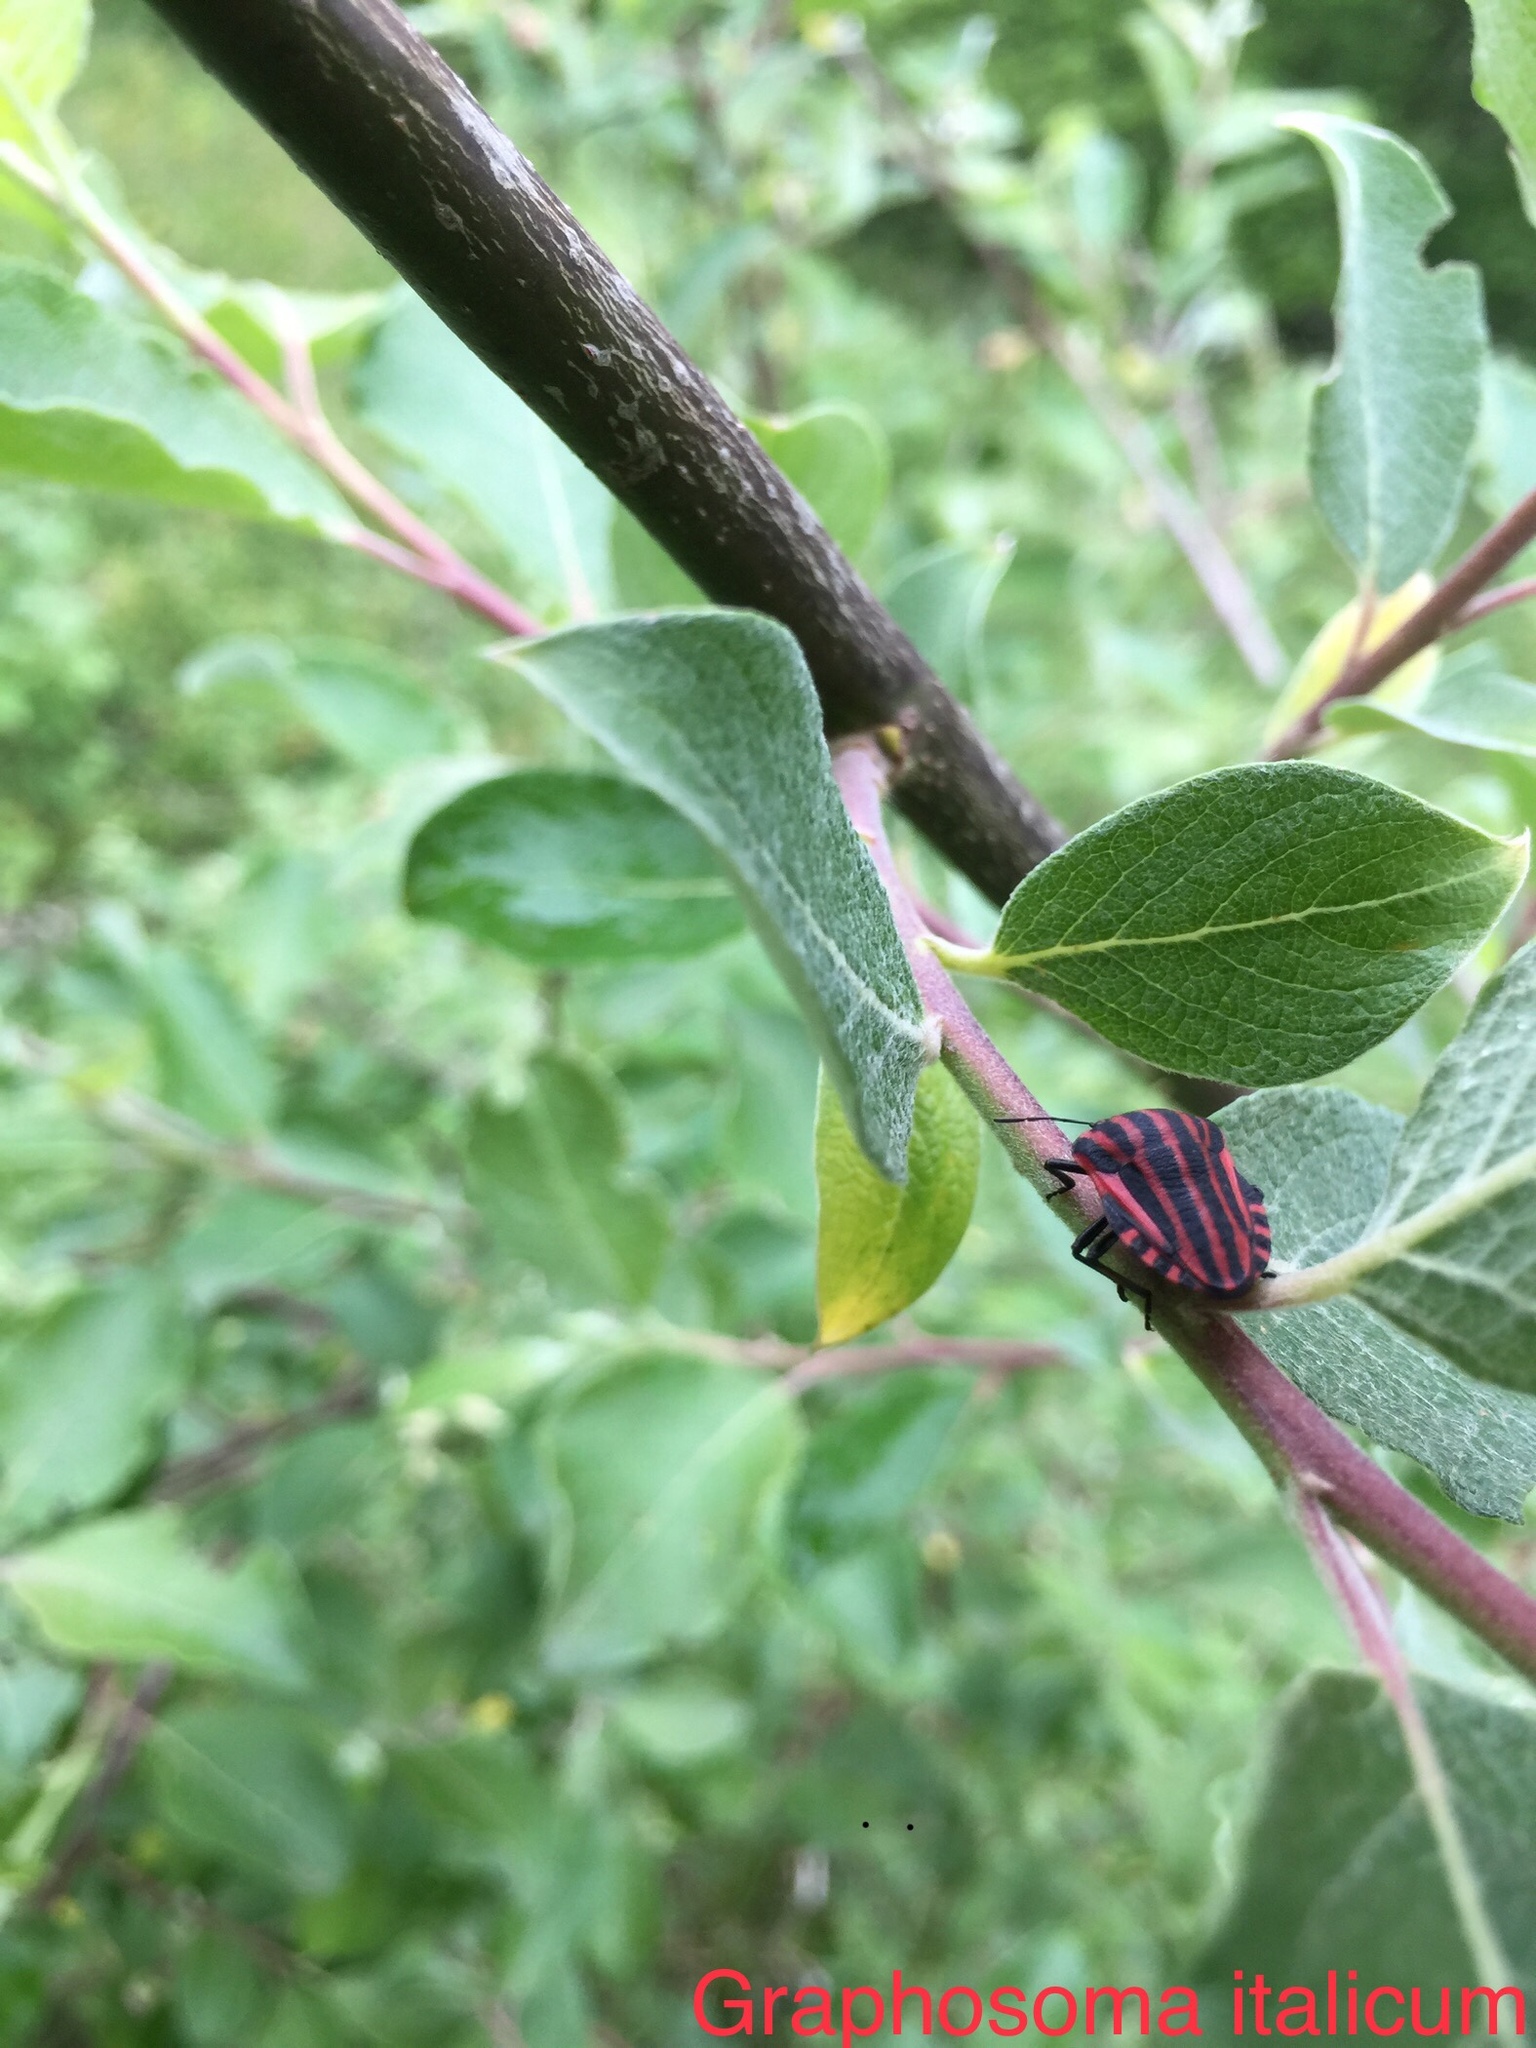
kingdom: Animalia
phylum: Arthropoda
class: Insecta
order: Hemiptera
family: Pentatomidae
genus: Graphosoma
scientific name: Graphosoma italicum
